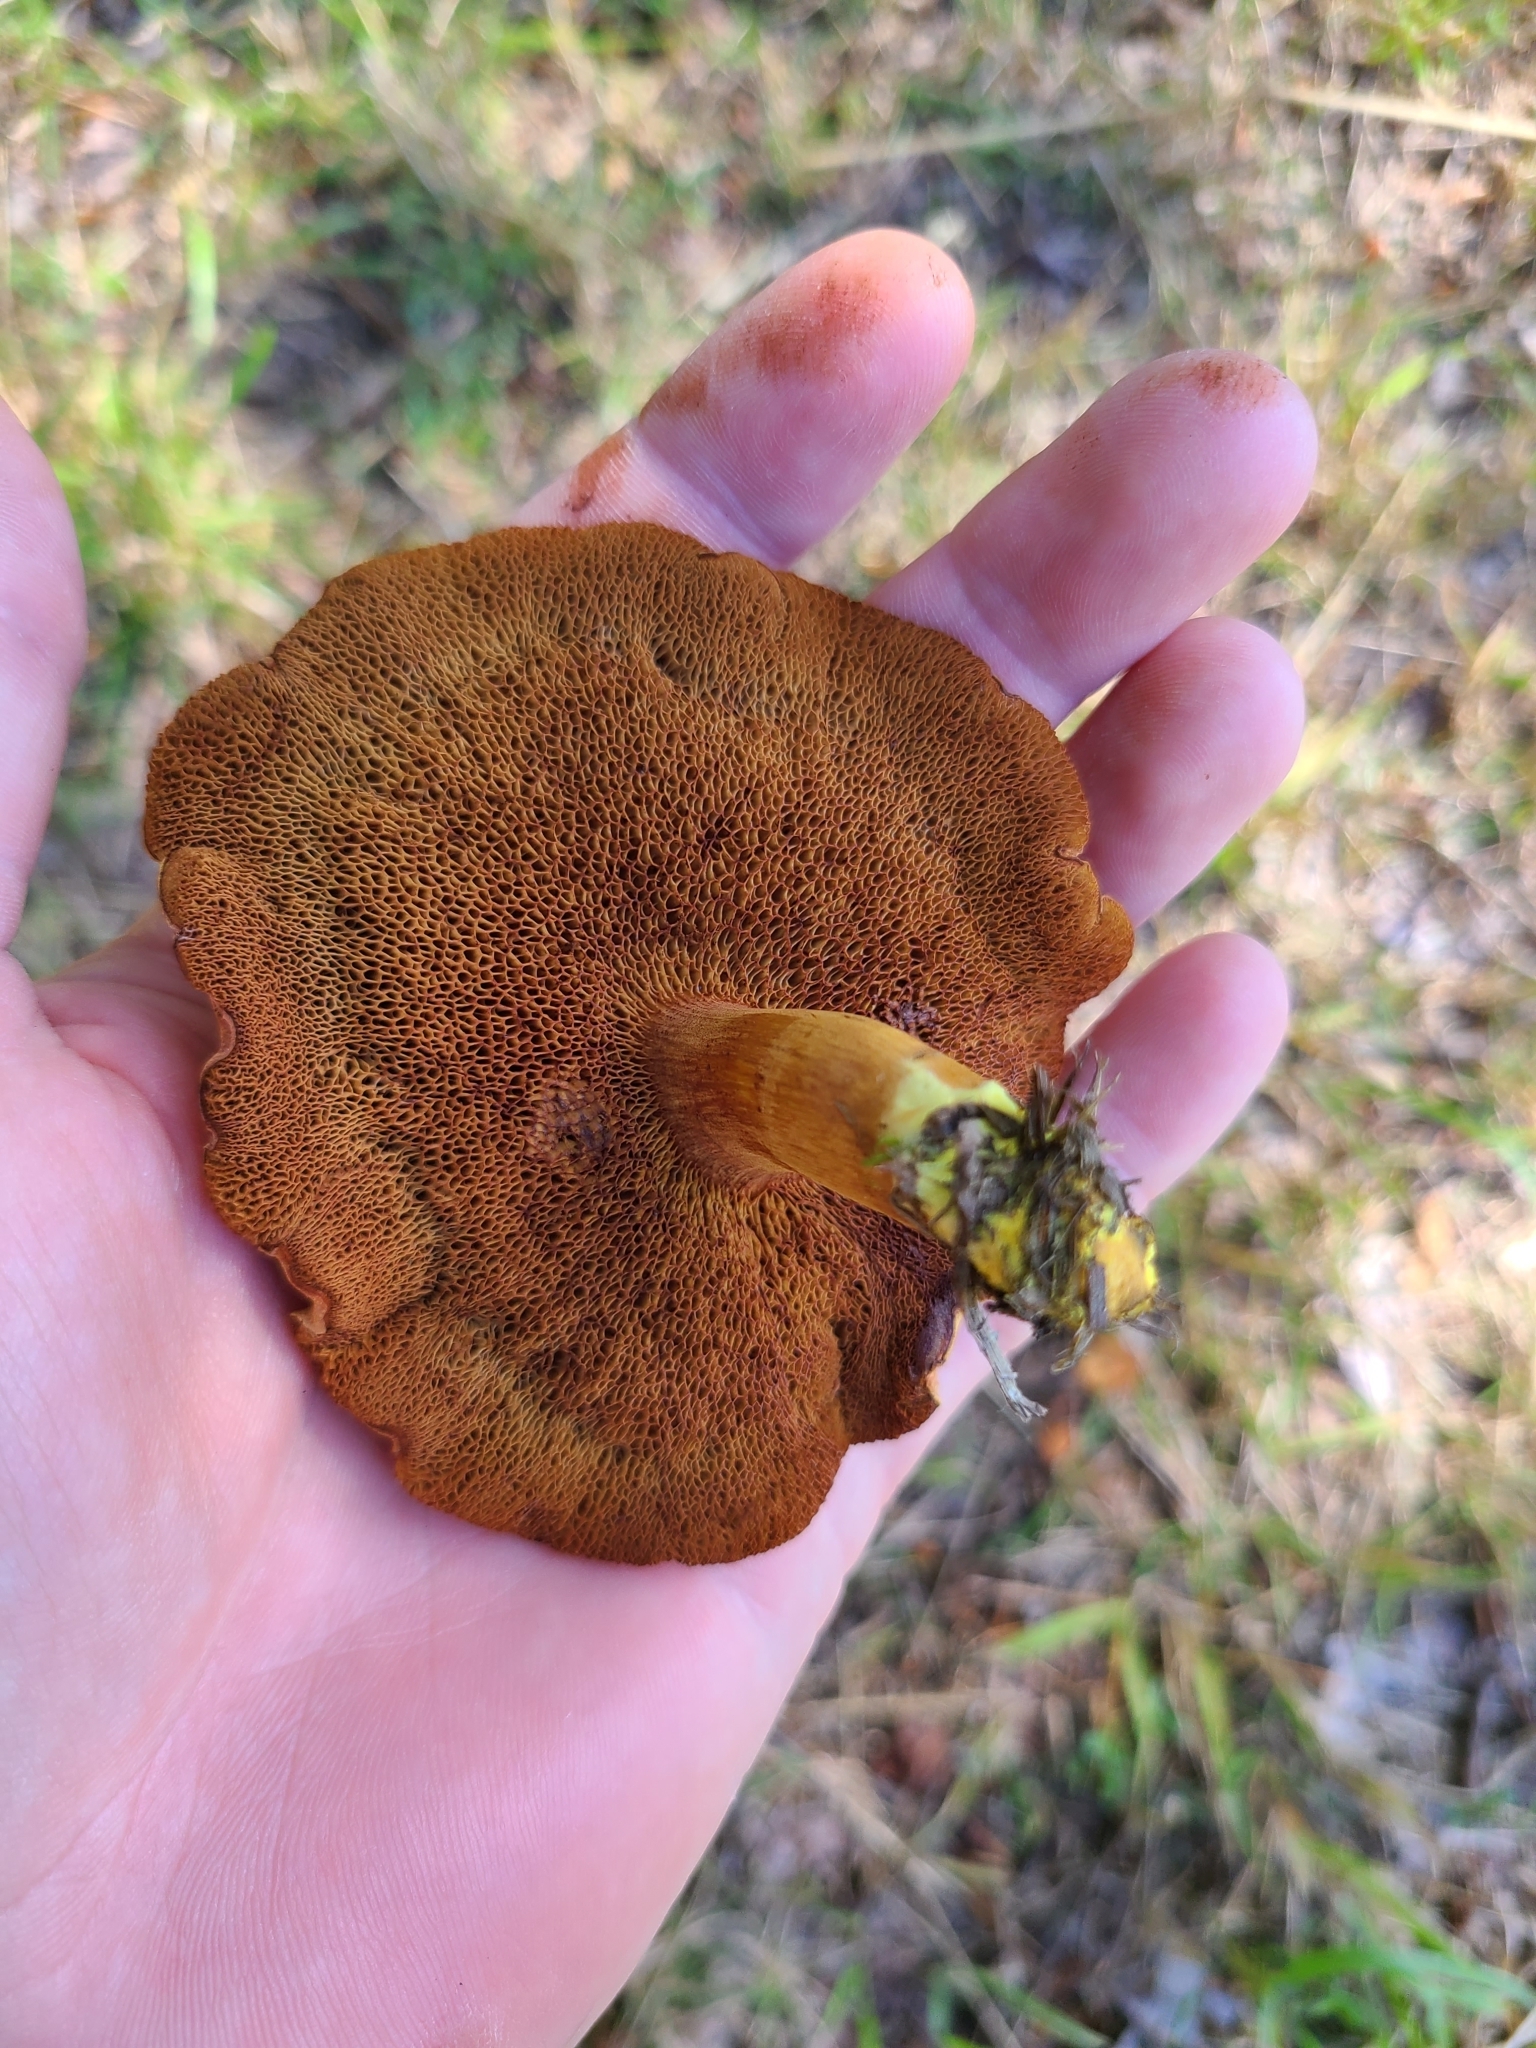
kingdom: Fungi
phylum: Basidiomycota
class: Agaricomycetes
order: Boletales
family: Boletaceae
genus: Chalciporus
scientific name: Chalciporus piperatus
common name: Peppery bolete
